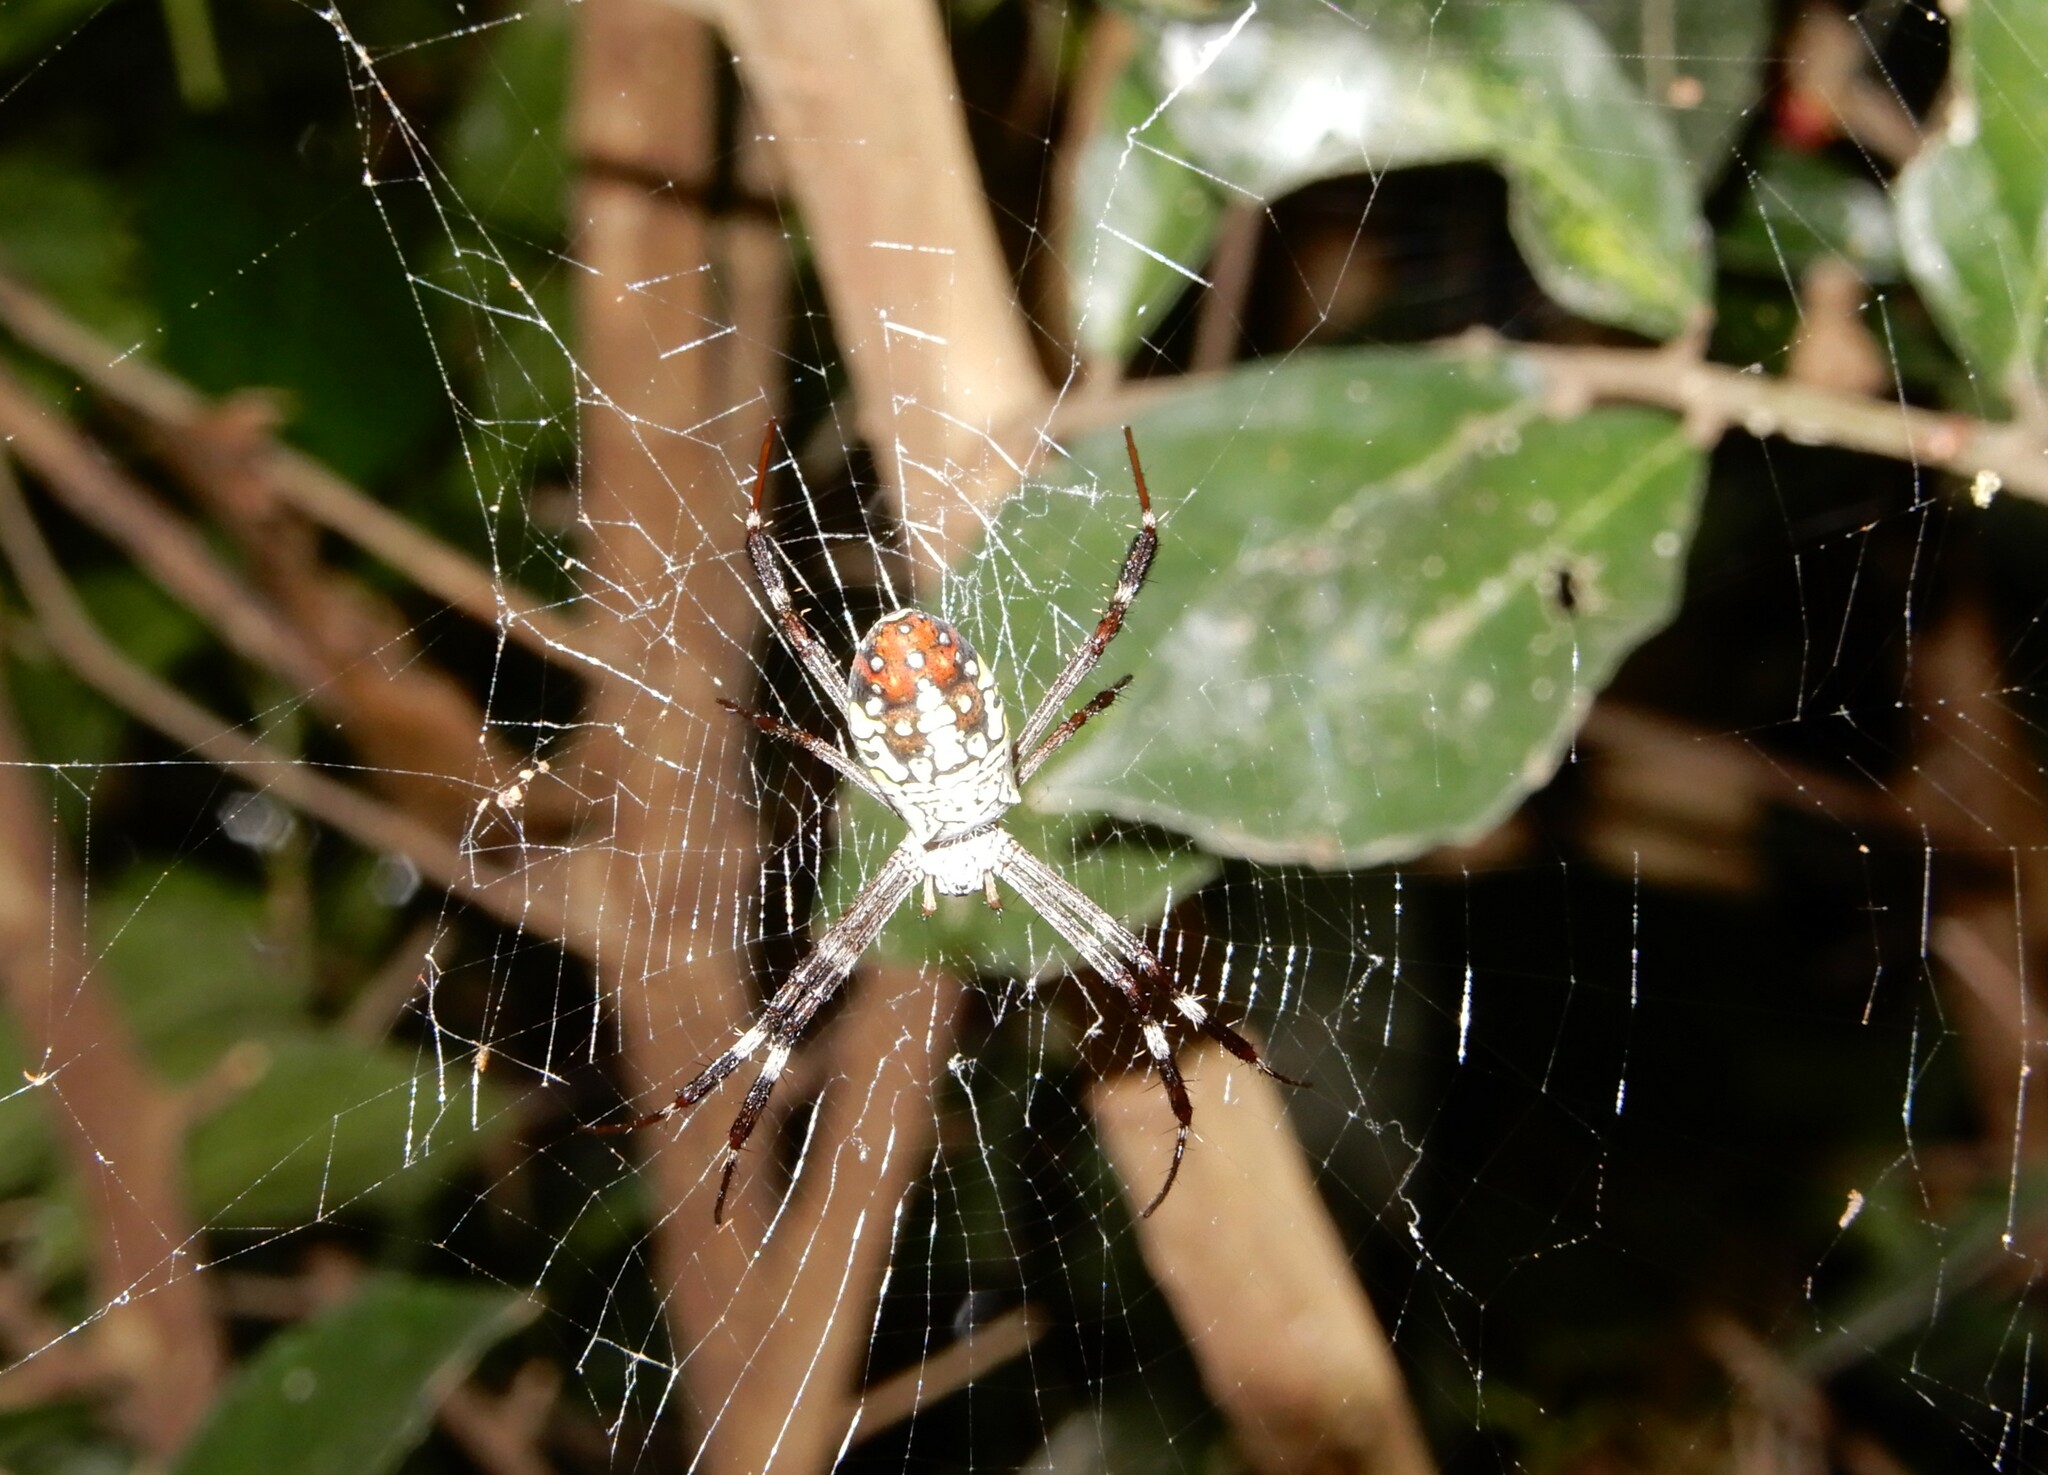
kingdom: Animalia
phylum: Arthropoda
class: Arachnida
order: Araneae
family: Araneidae
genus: Argiope
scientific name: Argiope dang
